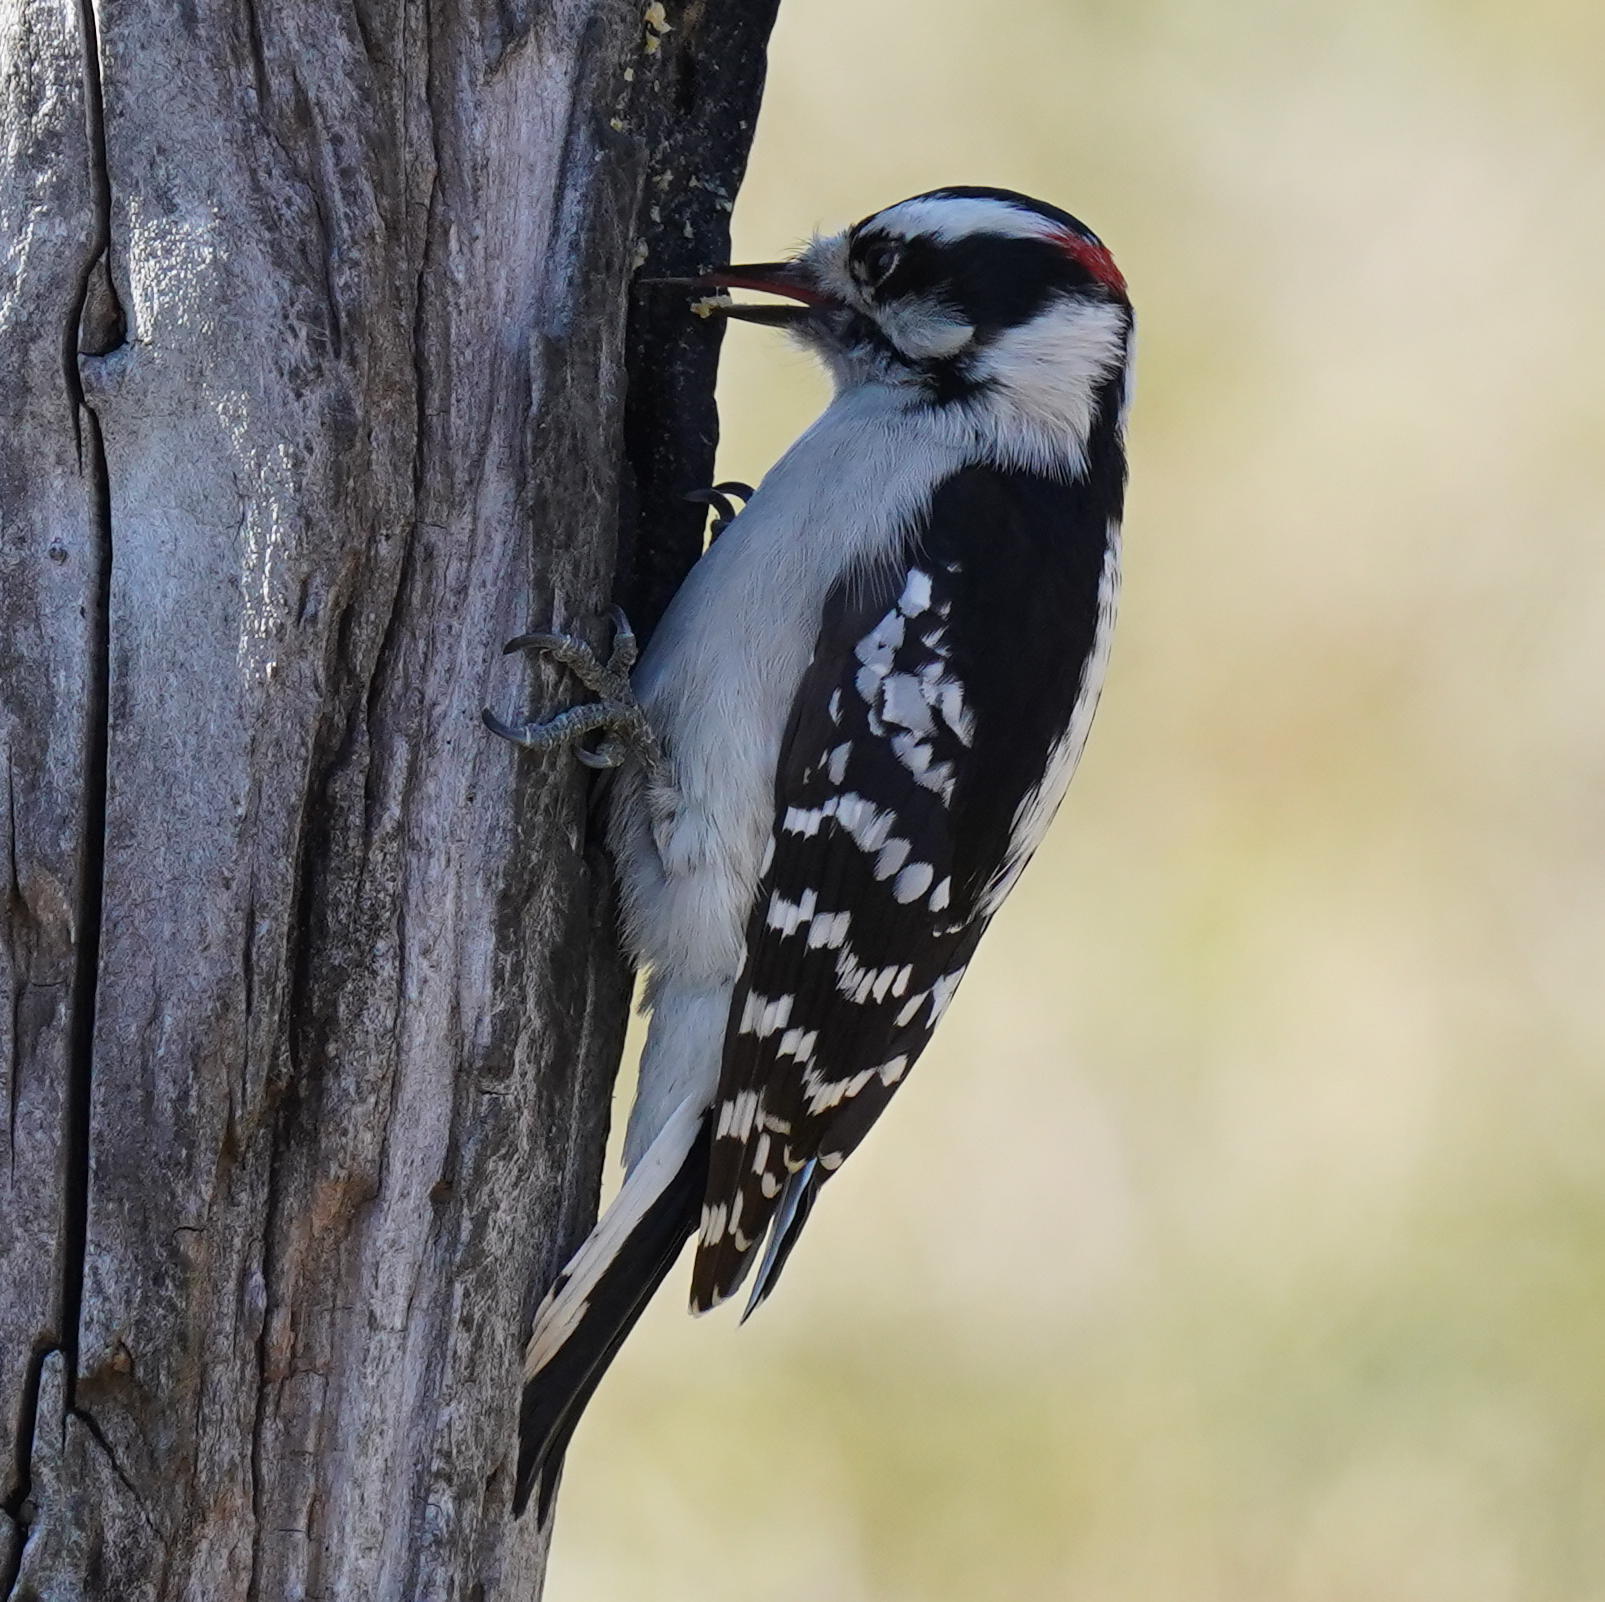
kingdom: Animalia
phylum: Chordata
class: Aves
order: Piciformes
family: Picidae
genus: Dryobates
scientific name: Dryobates pubescens
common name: Downy woodpecker
